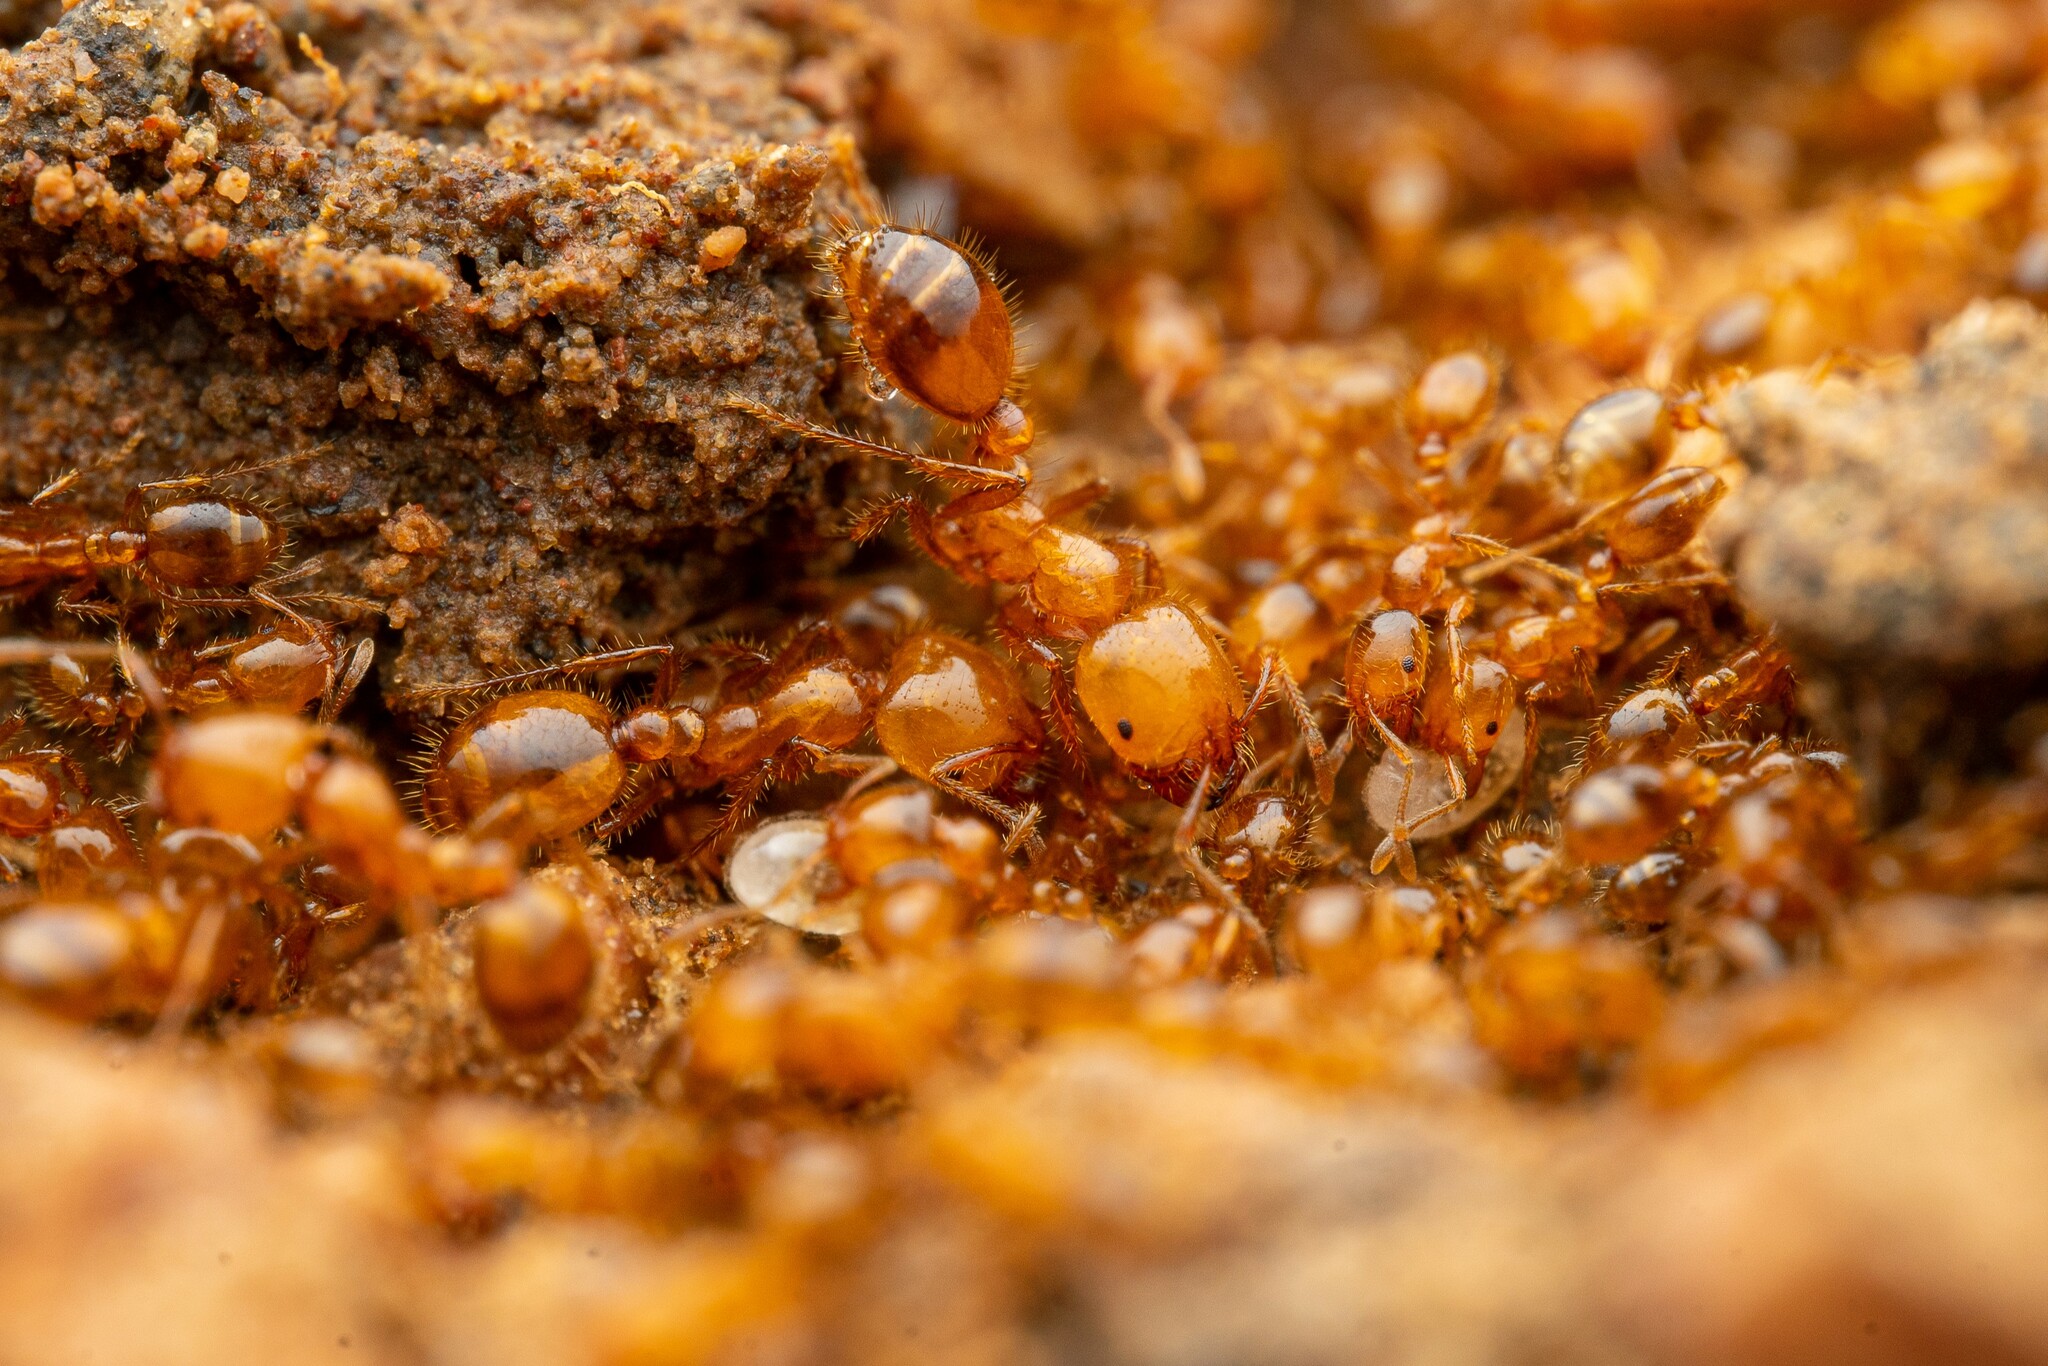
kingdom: Animalia
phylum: Arthropoda
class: Insecta
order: Hymenoptera
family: Formicidae
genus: Solenopsis
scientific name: Solenopsis aurea
